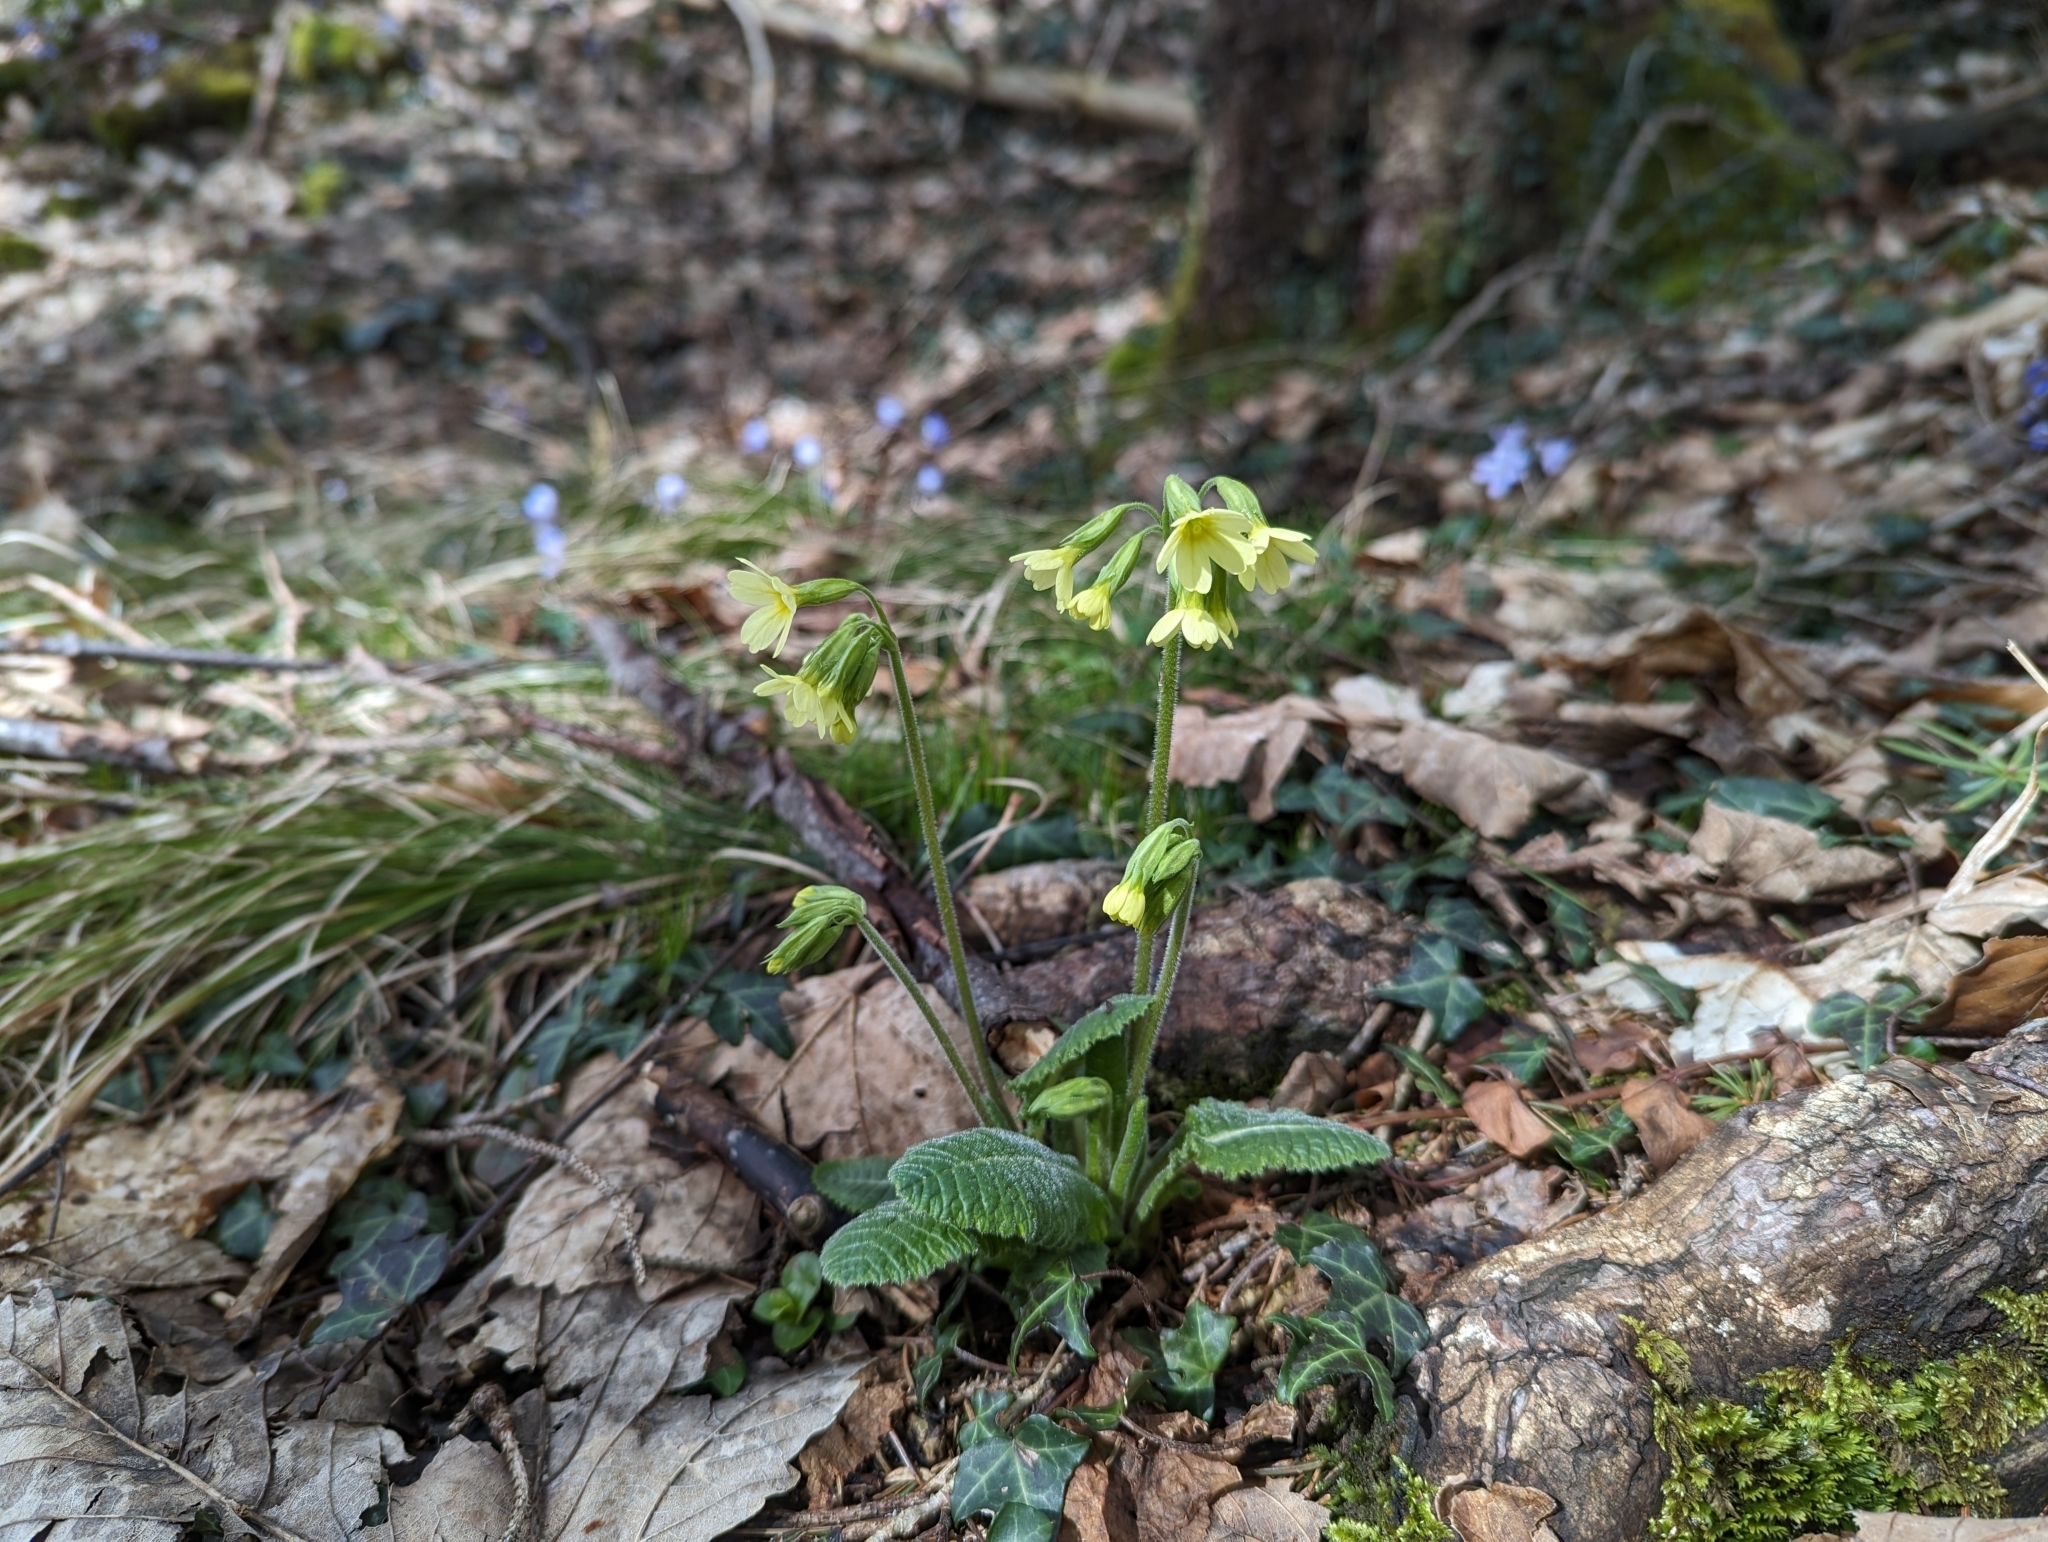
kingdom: Plantae
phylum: Tracheophyta
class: Magnoliopsida
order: Ericales
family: Primulaceae
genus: Primula
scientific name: Primula elatior
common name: Oxlip
